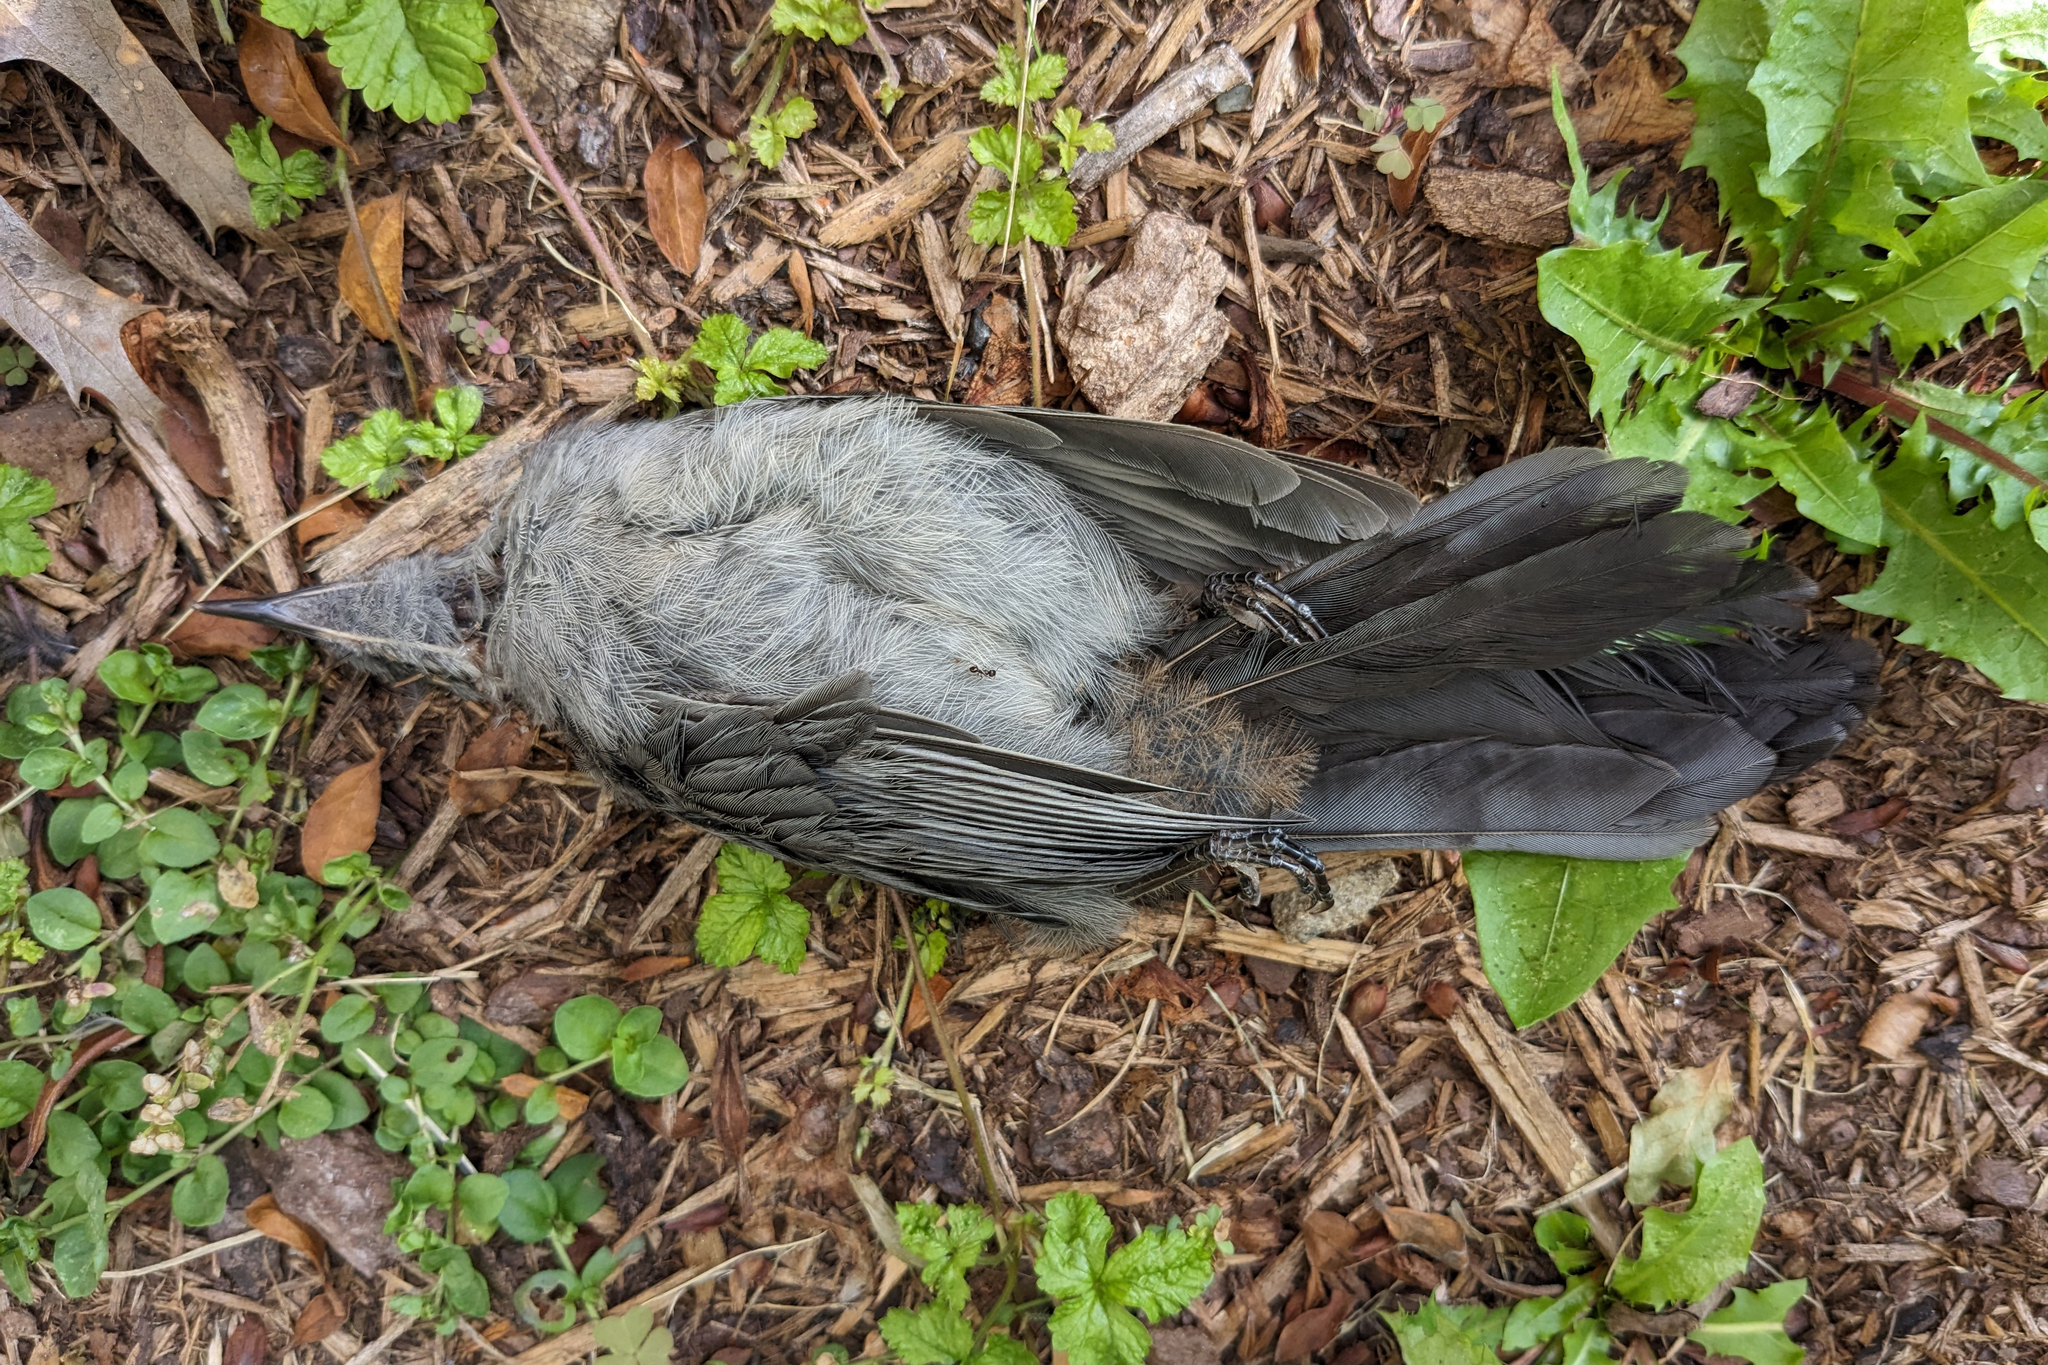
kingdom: Animalia
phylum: Chordata
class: Aves
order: Passeriformes
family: Mimidae
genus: Dumetella
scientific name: Dumetella carolinensis
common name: Gray catbird
